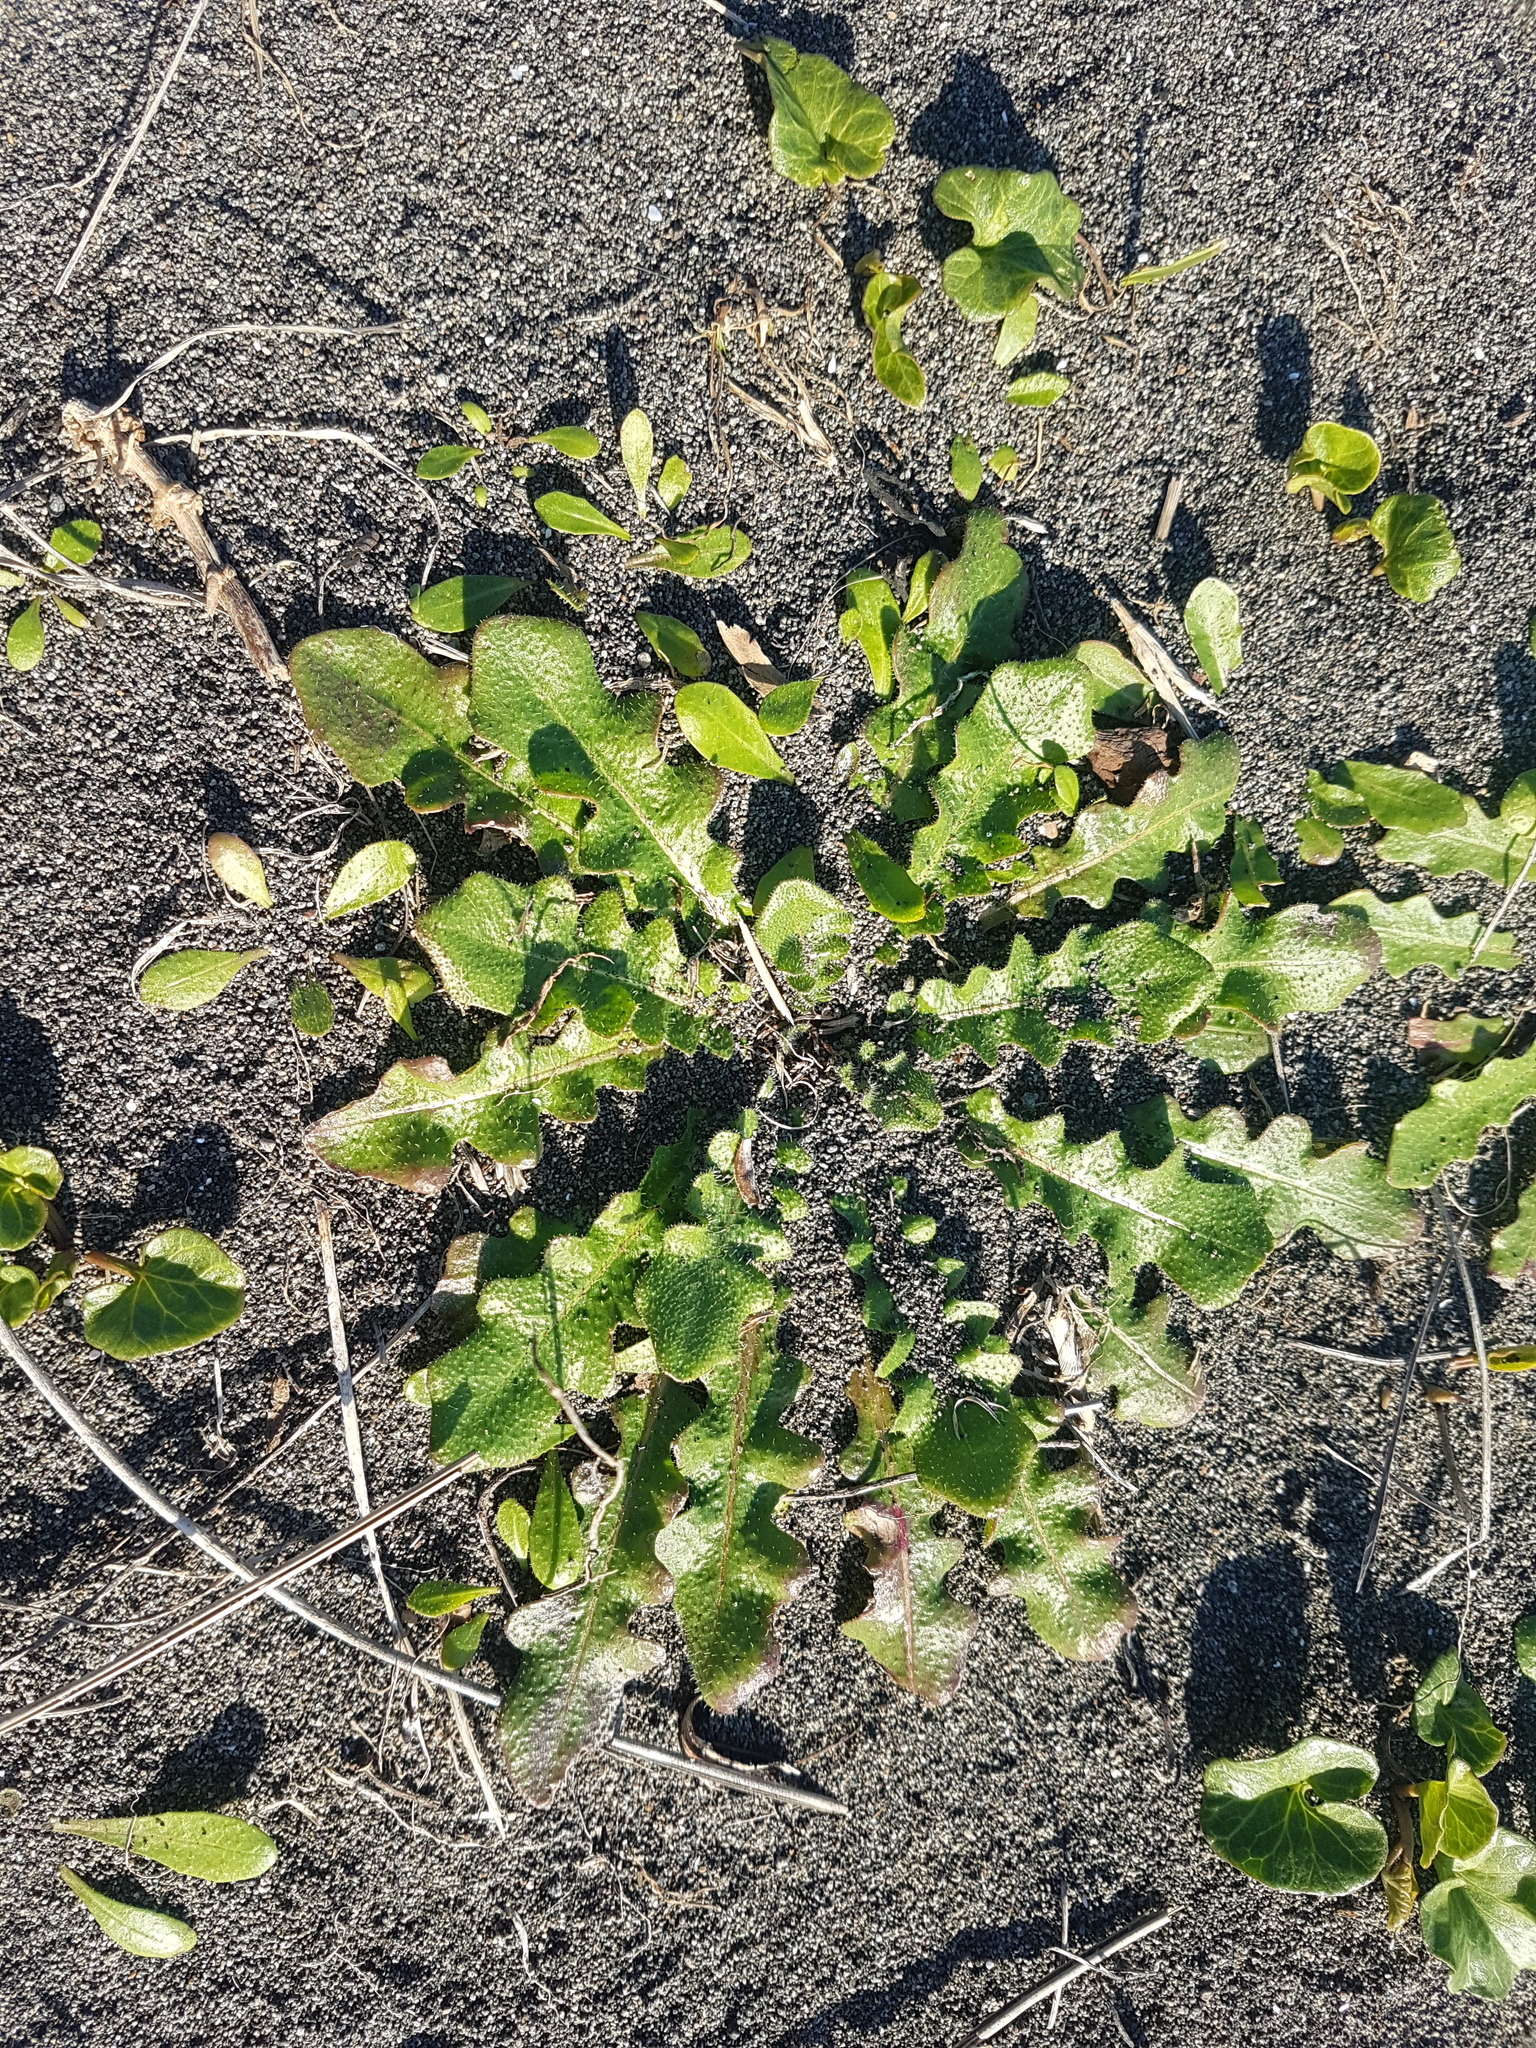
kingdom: Plantae
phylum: Tracheophyta
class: Magnoliopsida
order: Asterales
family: Asteraceae
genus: Hypochaeris
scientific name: Hypochaeris radicata
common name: Flatweed
